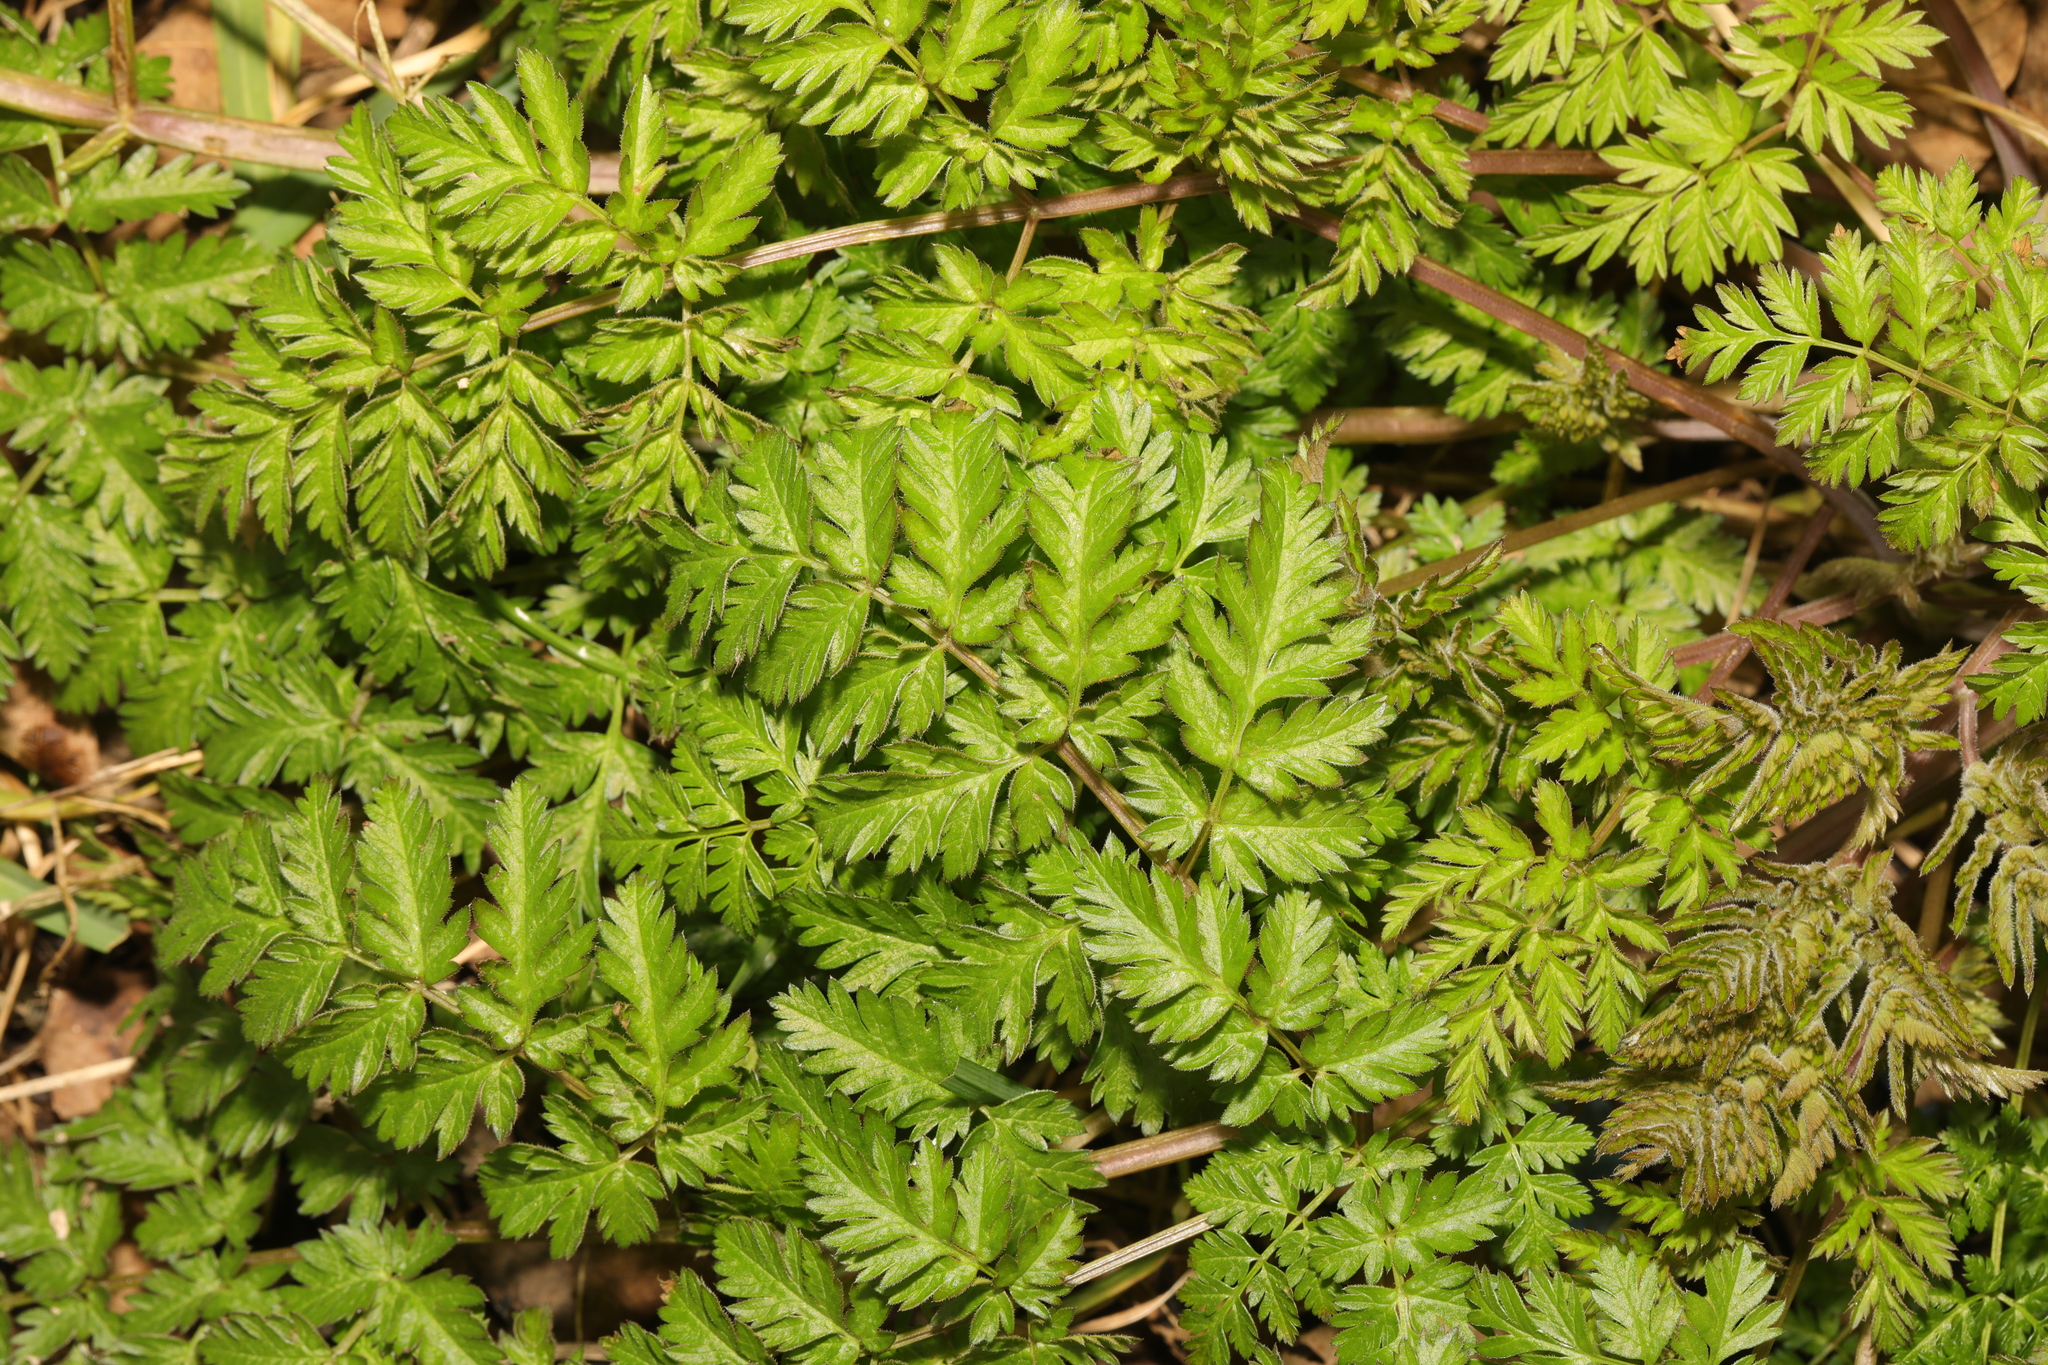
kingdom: Plantae
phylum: Tracheophyta
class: Magnoliopsida
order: Apiales
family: Apiaceae
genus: Anthriscus
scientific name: Anthriscus sylvestris
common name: Cow parsley
